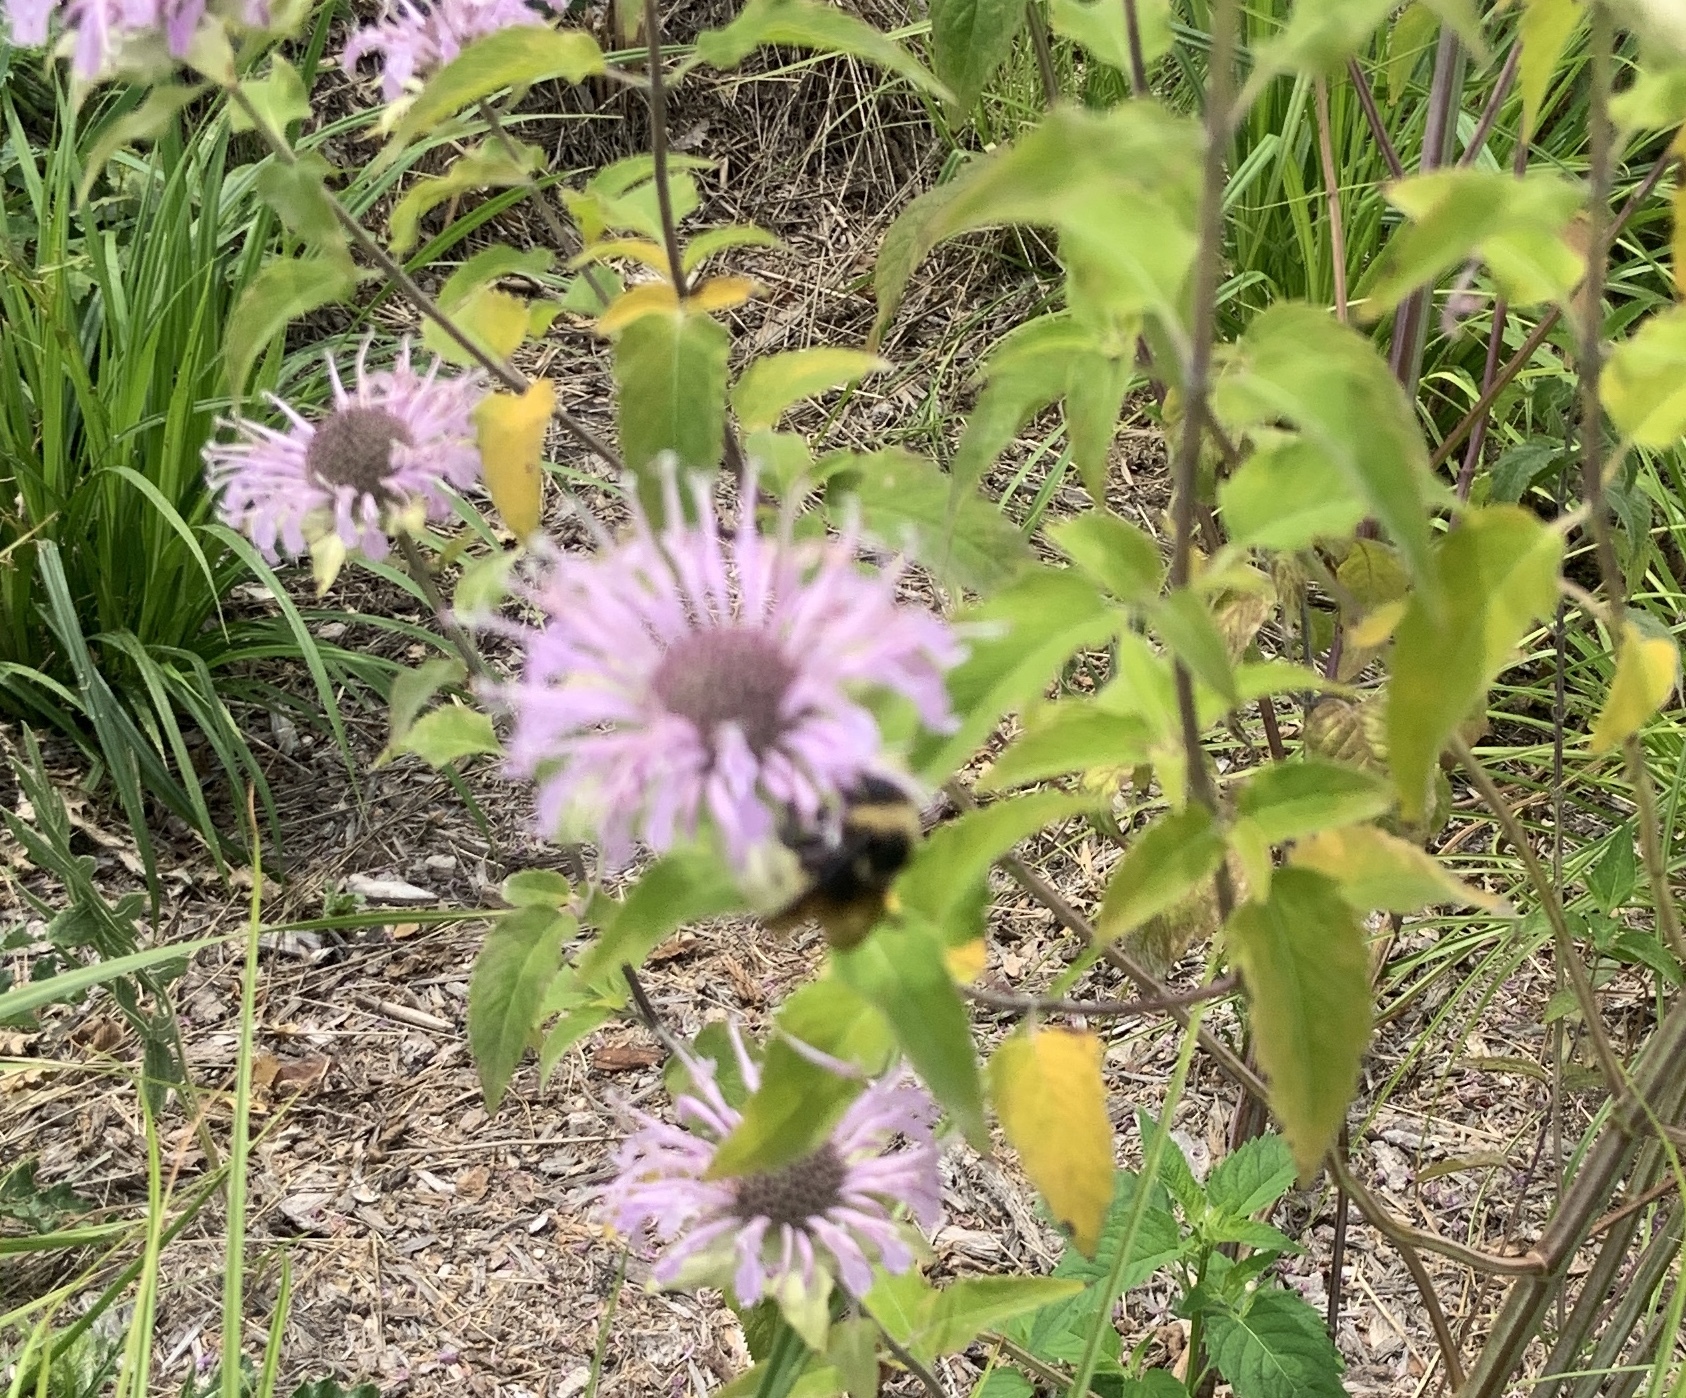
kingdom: Animalia
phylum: Arthropoda
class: Insecta
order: Hymenoptera
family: Apidae
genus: Bombus
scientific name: Bombus
